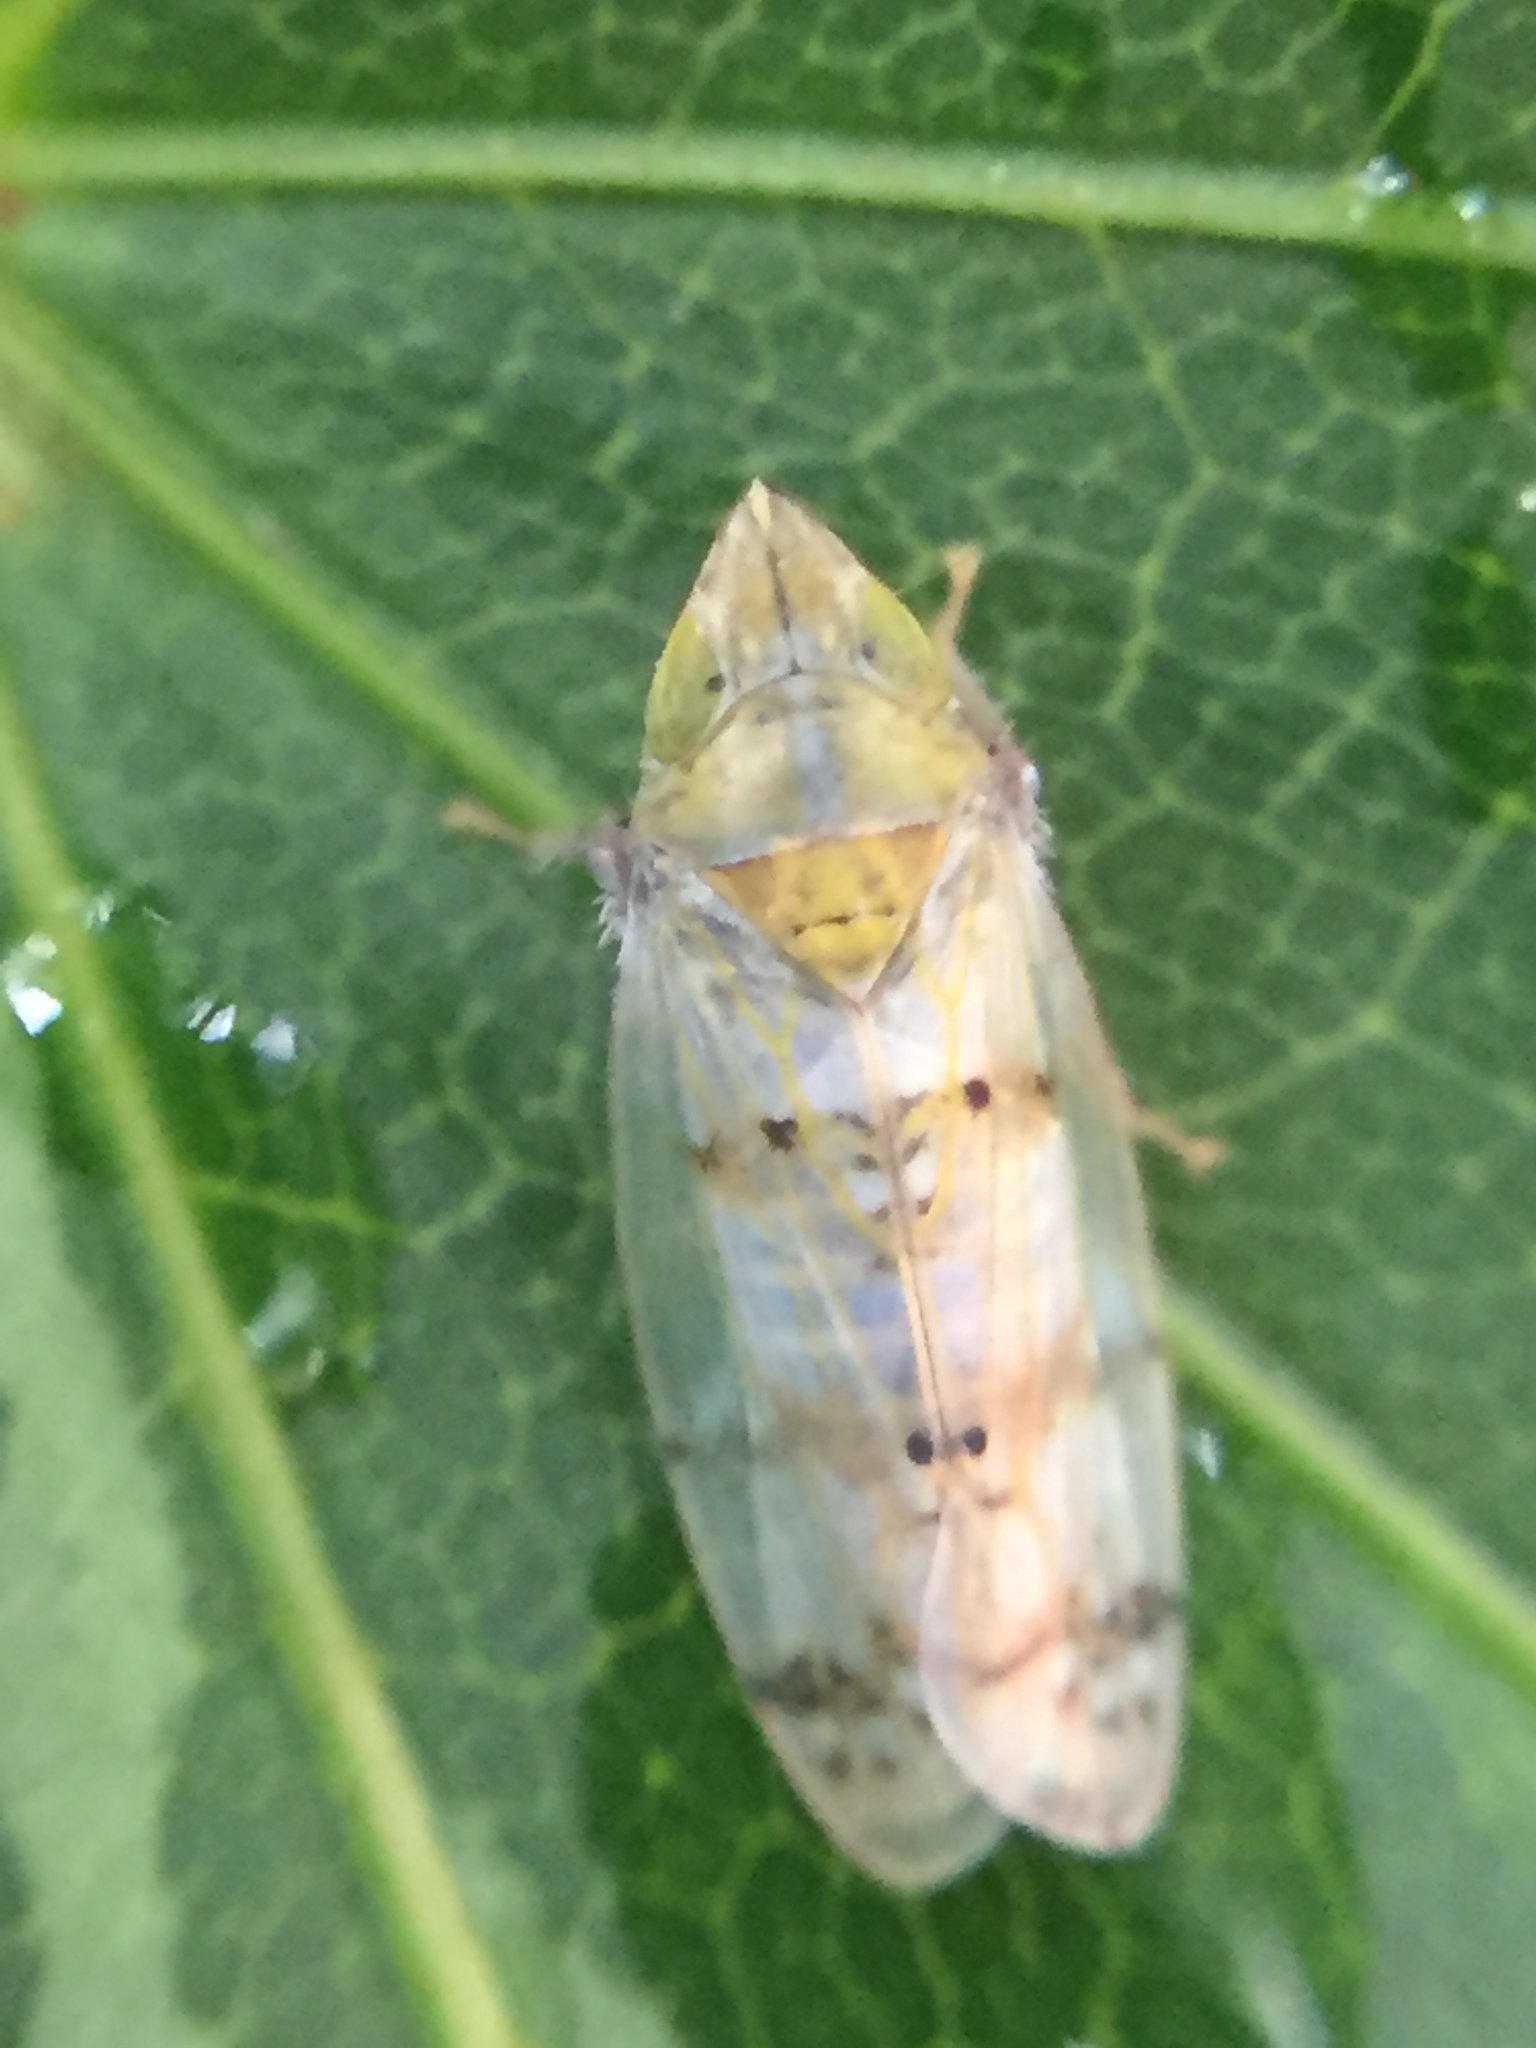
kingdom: Animalia
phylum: Arthropoda
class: Insecta
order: Hemiptera
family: Cicadellidae
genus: Japananus
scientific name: Japananus hyalinus
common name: The japanese maple leafhopper
